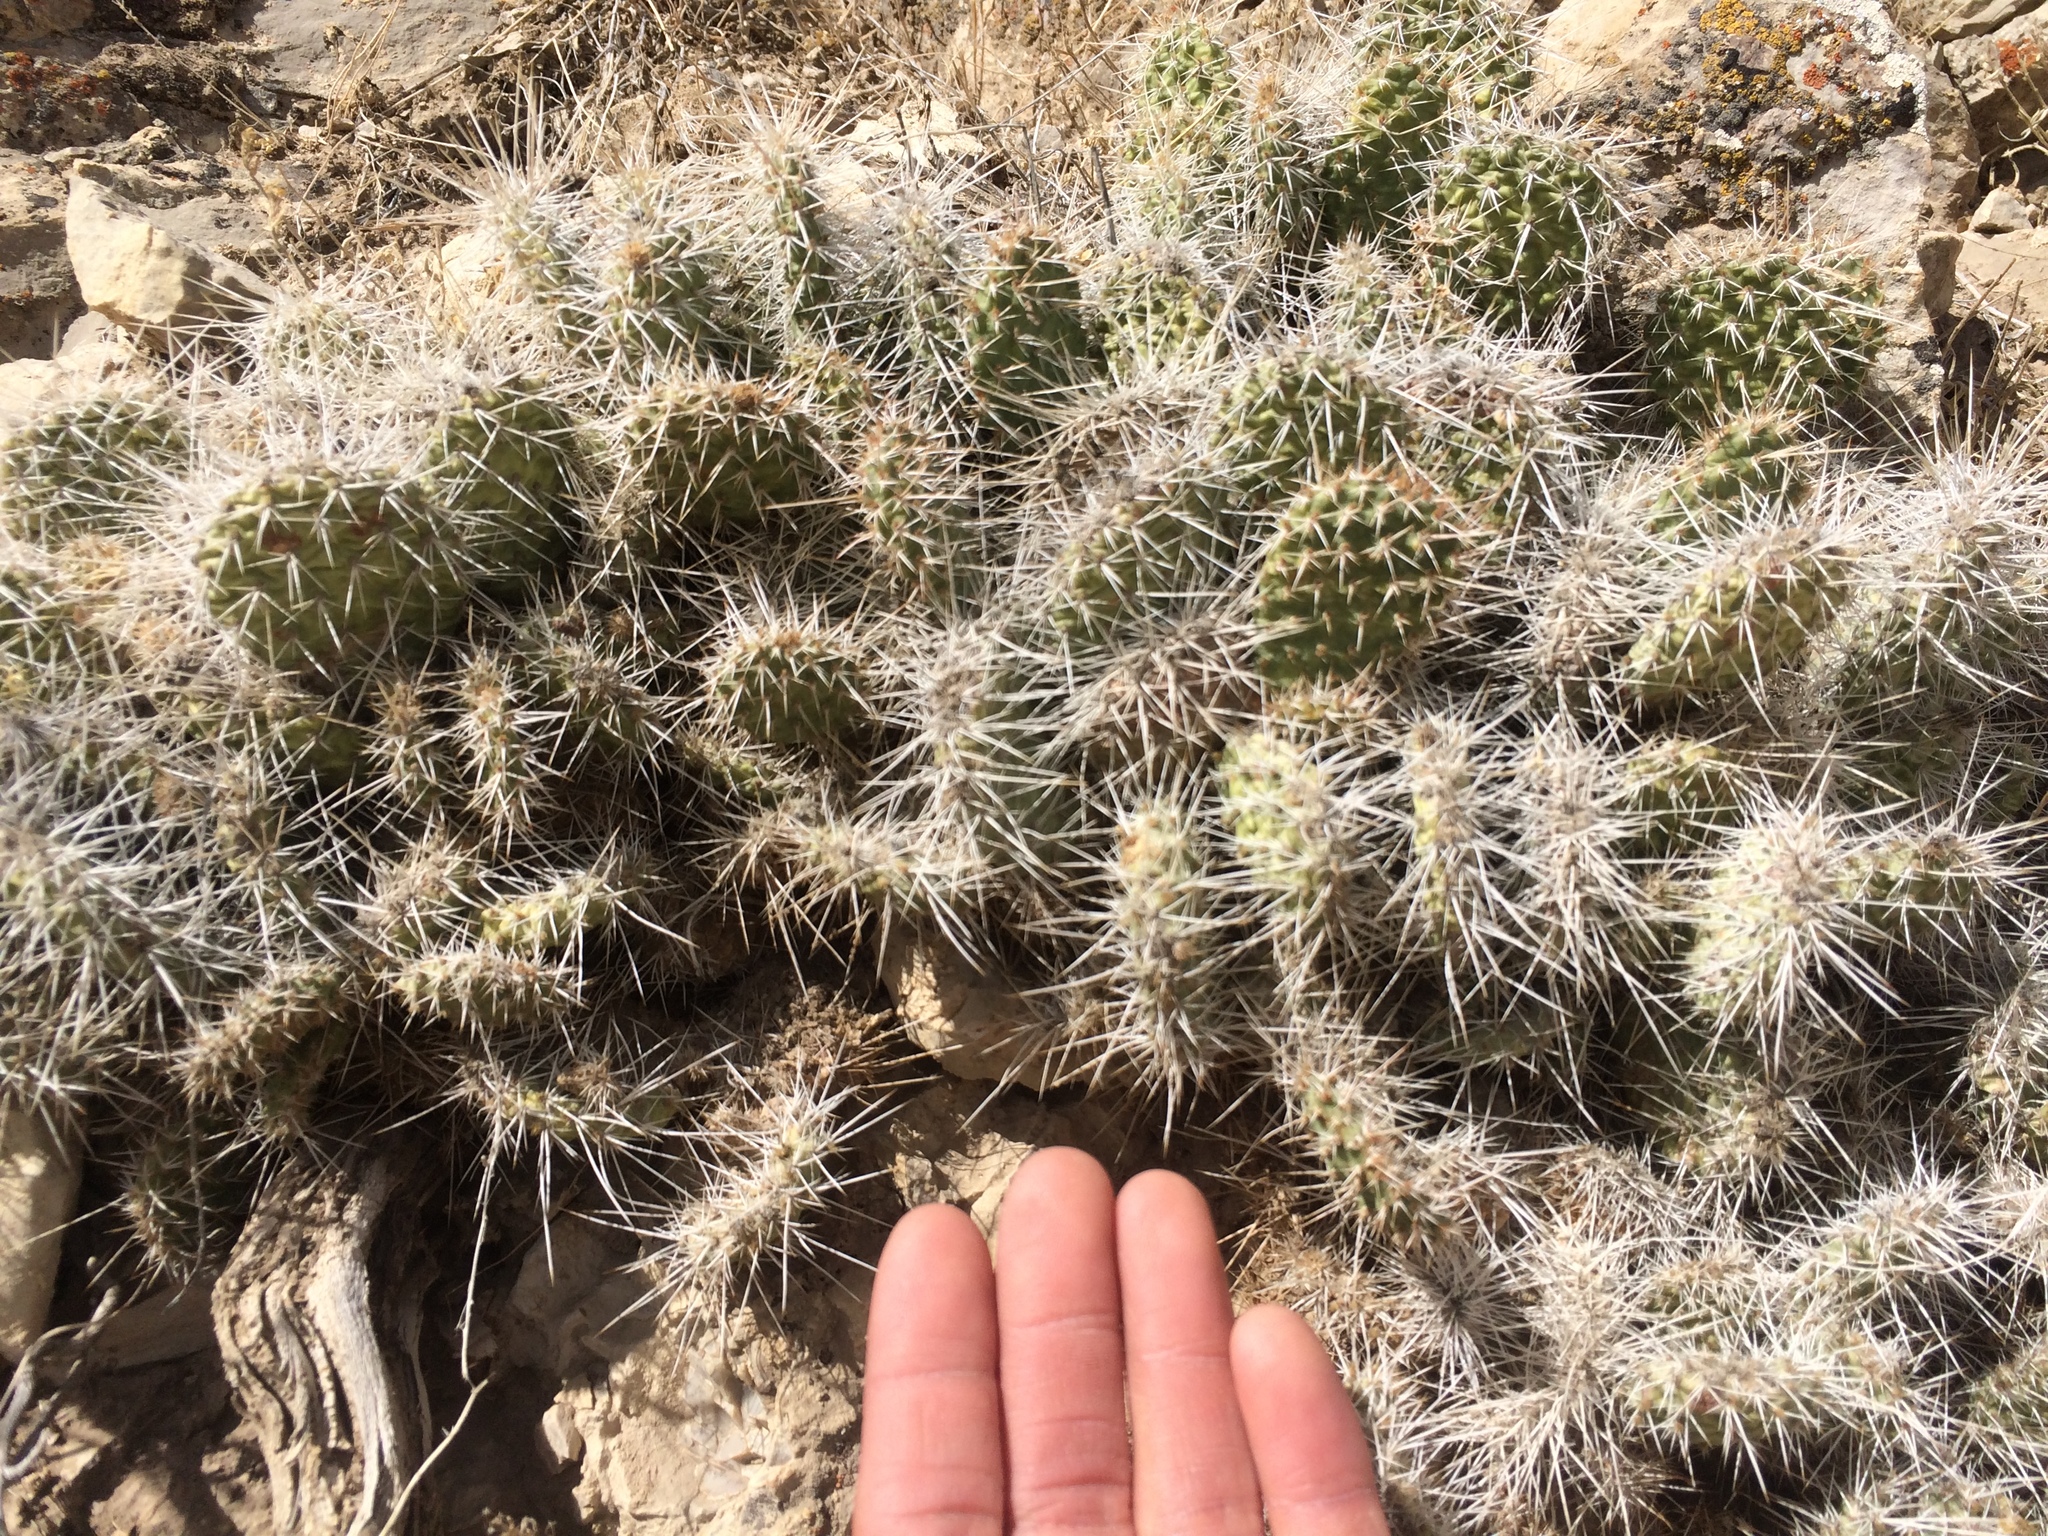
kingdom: Plantae
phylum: Tracheophyta
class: Magnoliopsida
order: Caryophyllales
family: Cactaceae
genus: Opuntia
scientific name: Opuntia polyacantha
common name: Plains prickly-pear
